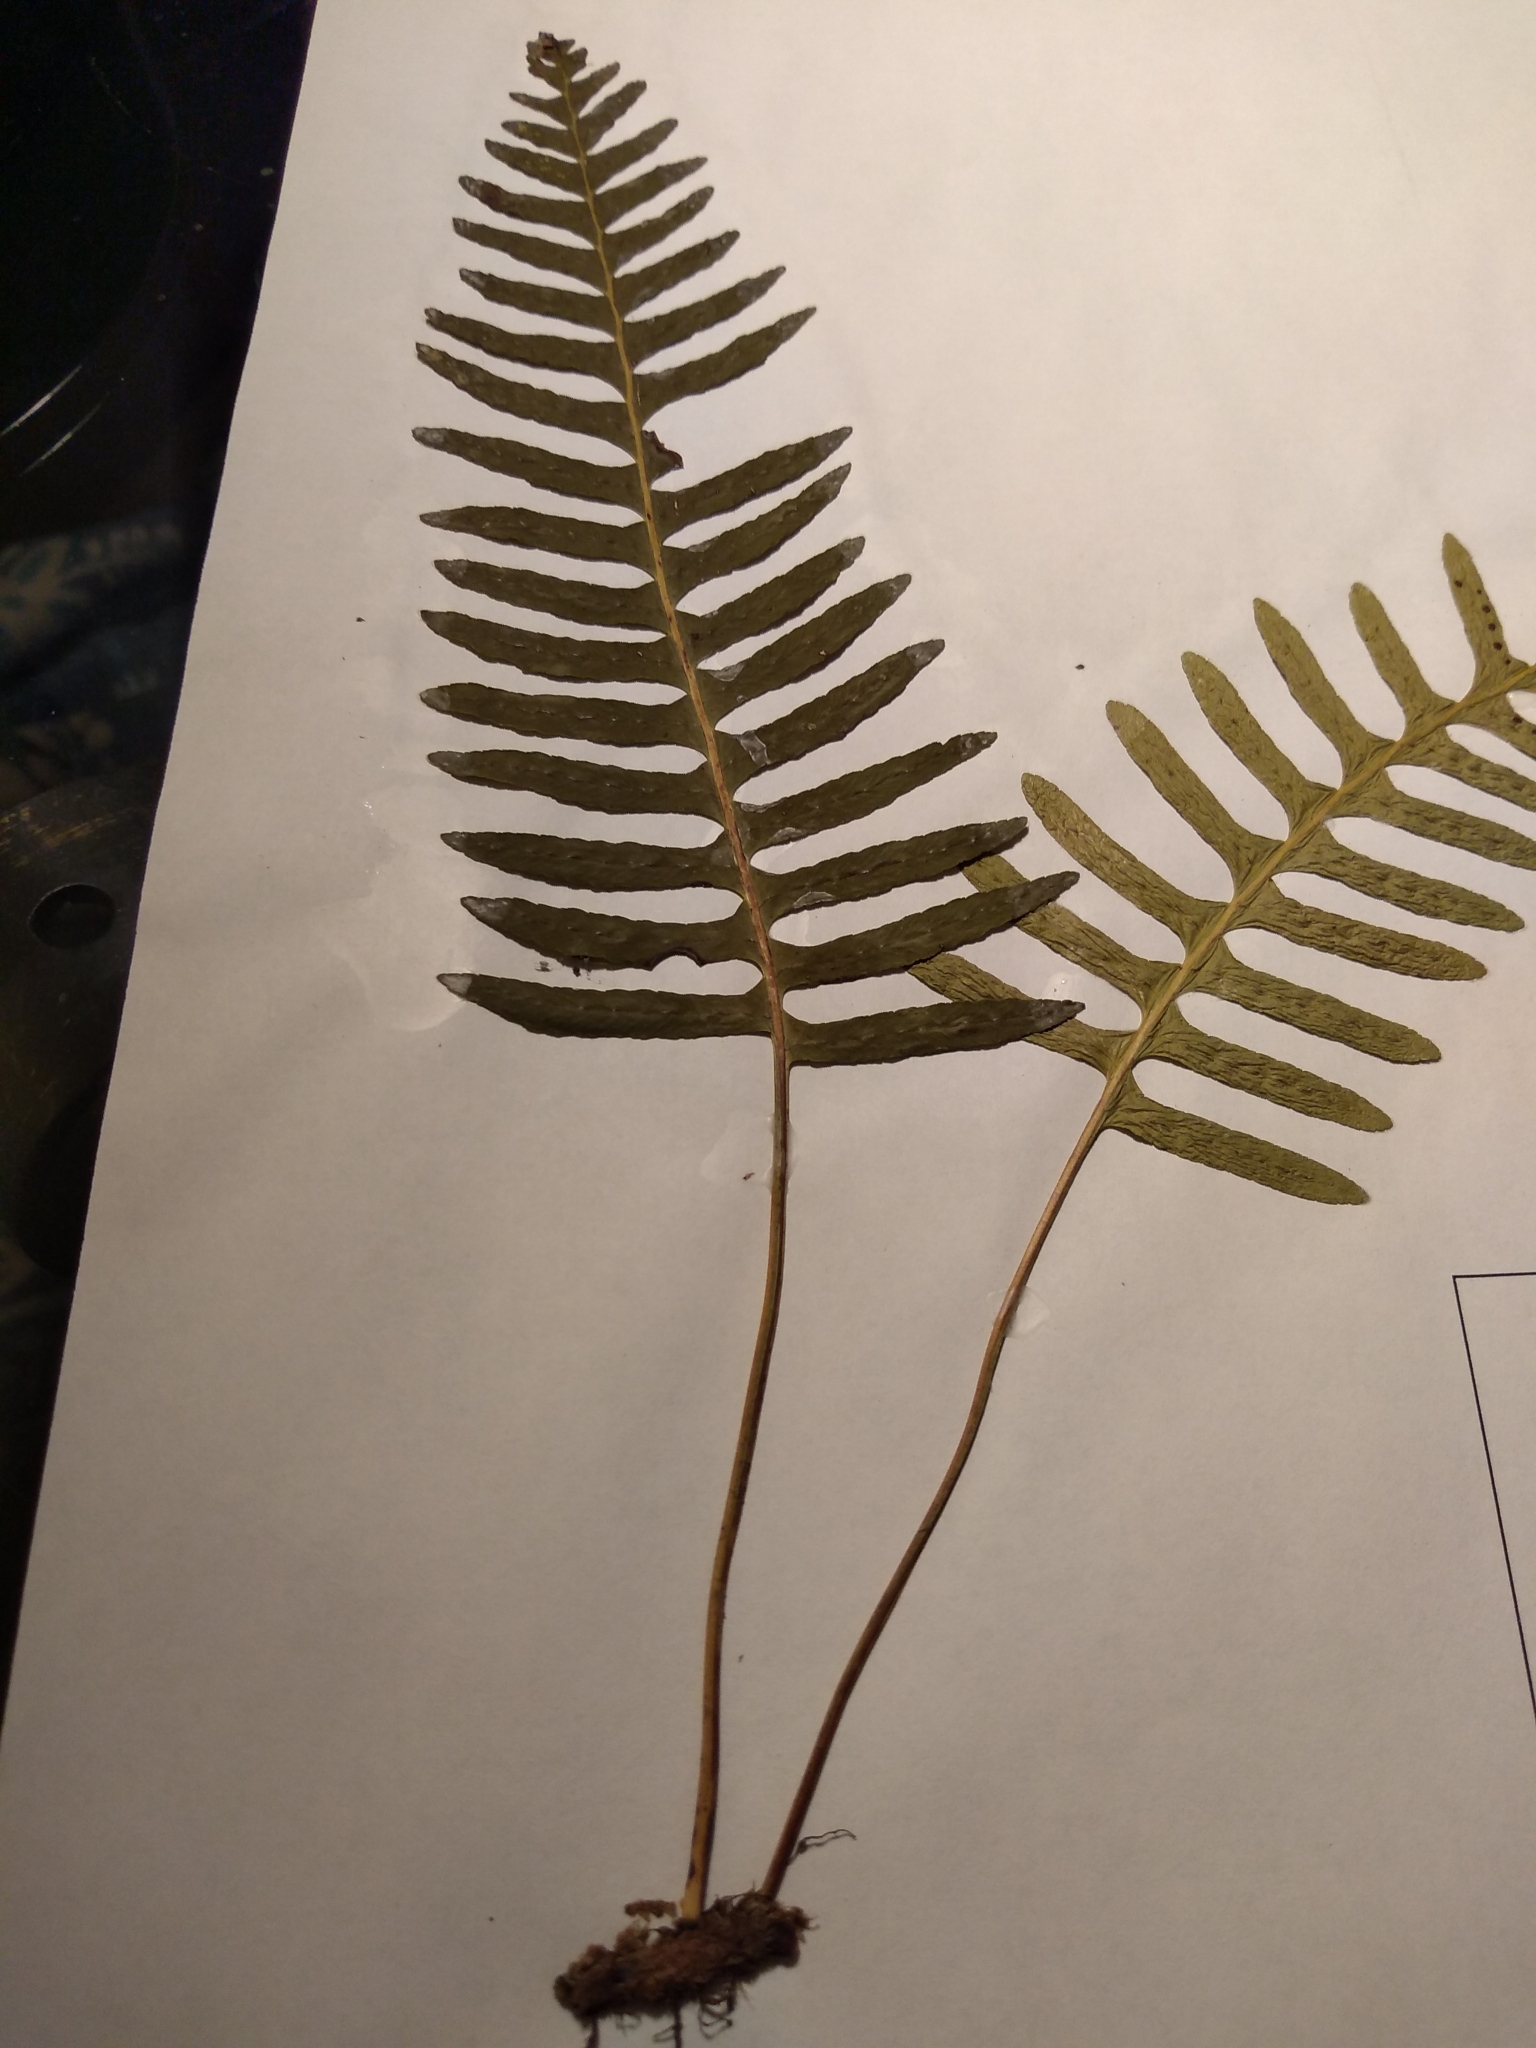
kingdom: Plantae
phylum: Tracheophyta
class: Polypodiopsida
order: Polypodiales
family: Polypodiaceae
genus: Polypodium
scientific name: Polypodium appalachianum
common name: Appalachian polypody
